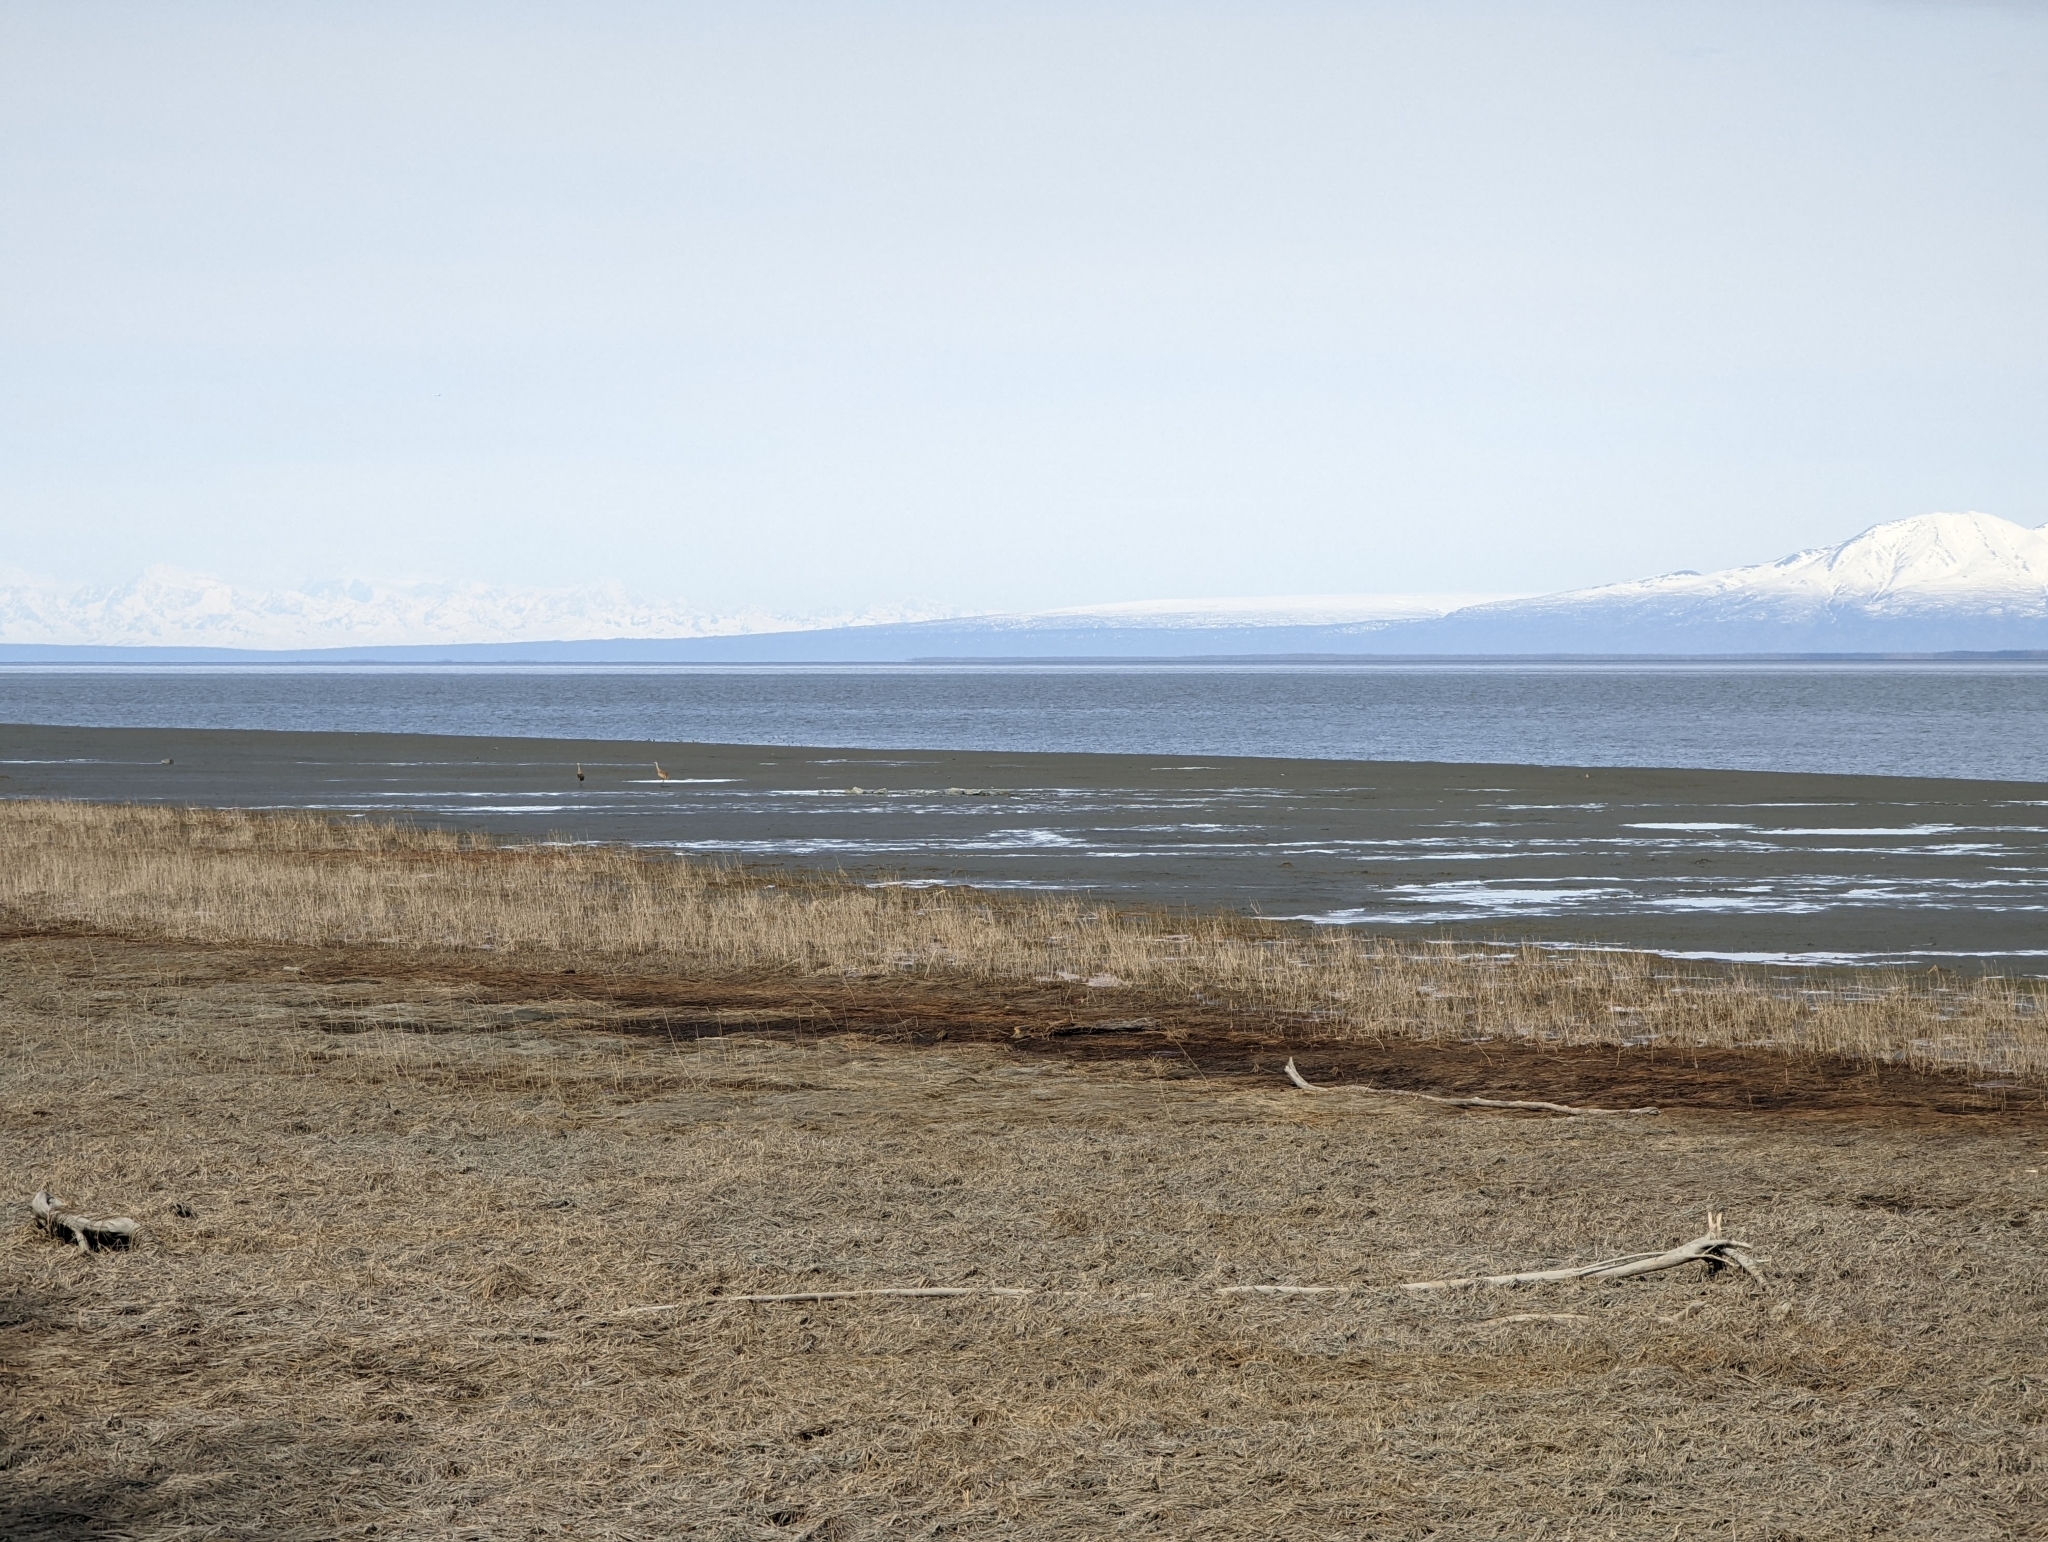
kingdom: Animalia
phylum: Chordata
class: Aves
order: Gruiformes
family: Gruidae
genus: Grus
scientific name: Grus canadensis
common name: Sandhill crane
